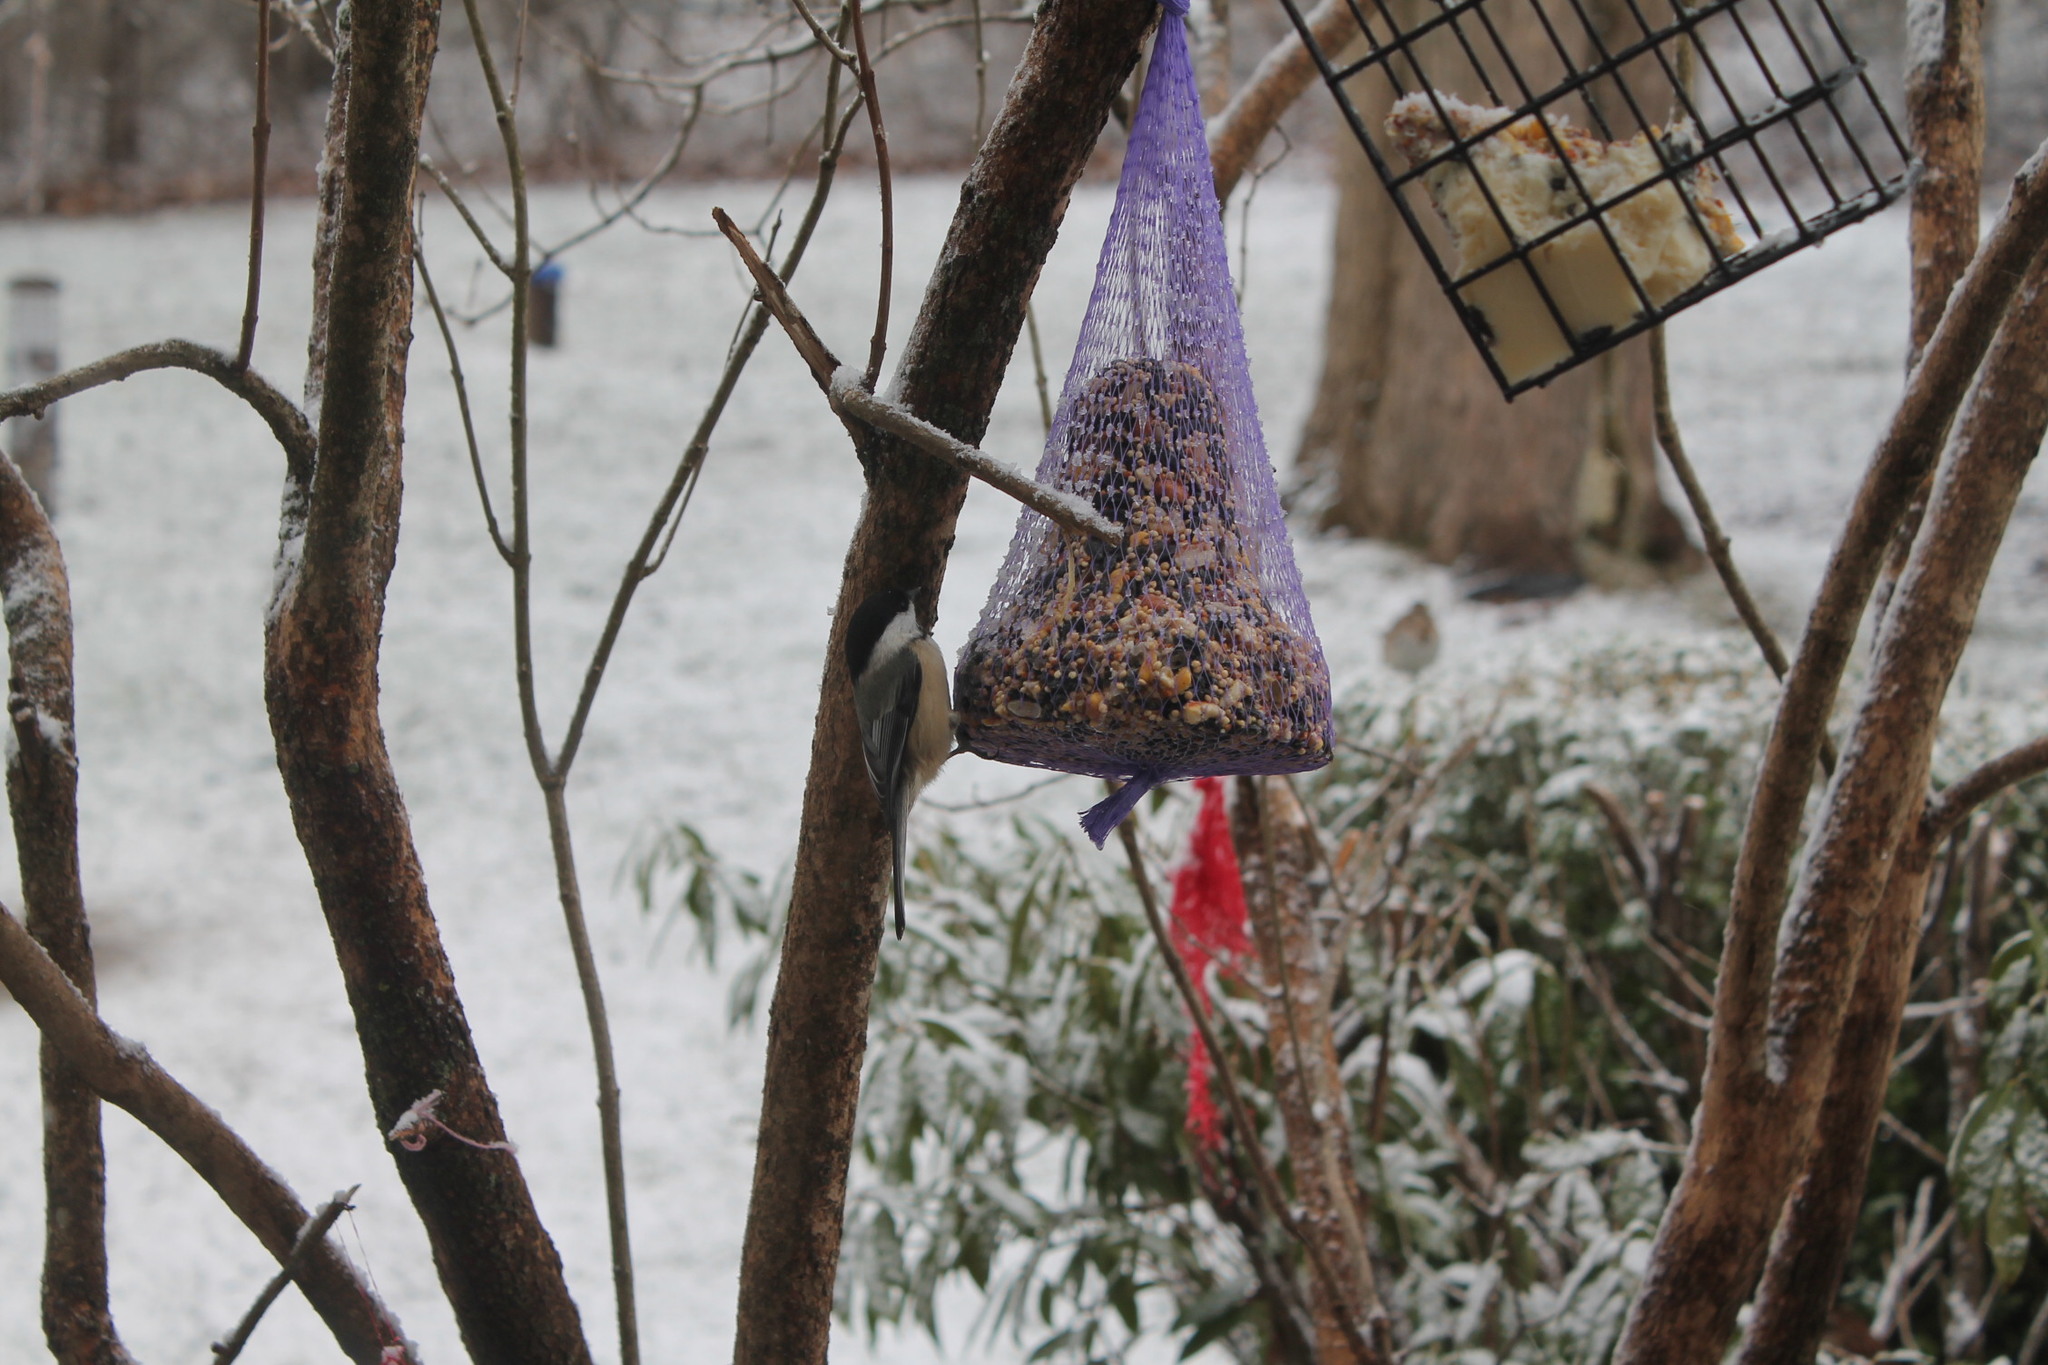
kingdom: Animalia
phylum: Chordata
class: Aves
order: Passeriformes
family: Paridae
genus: Poecile
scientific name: Poecile atricapillus
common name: Black-capped chickadee
